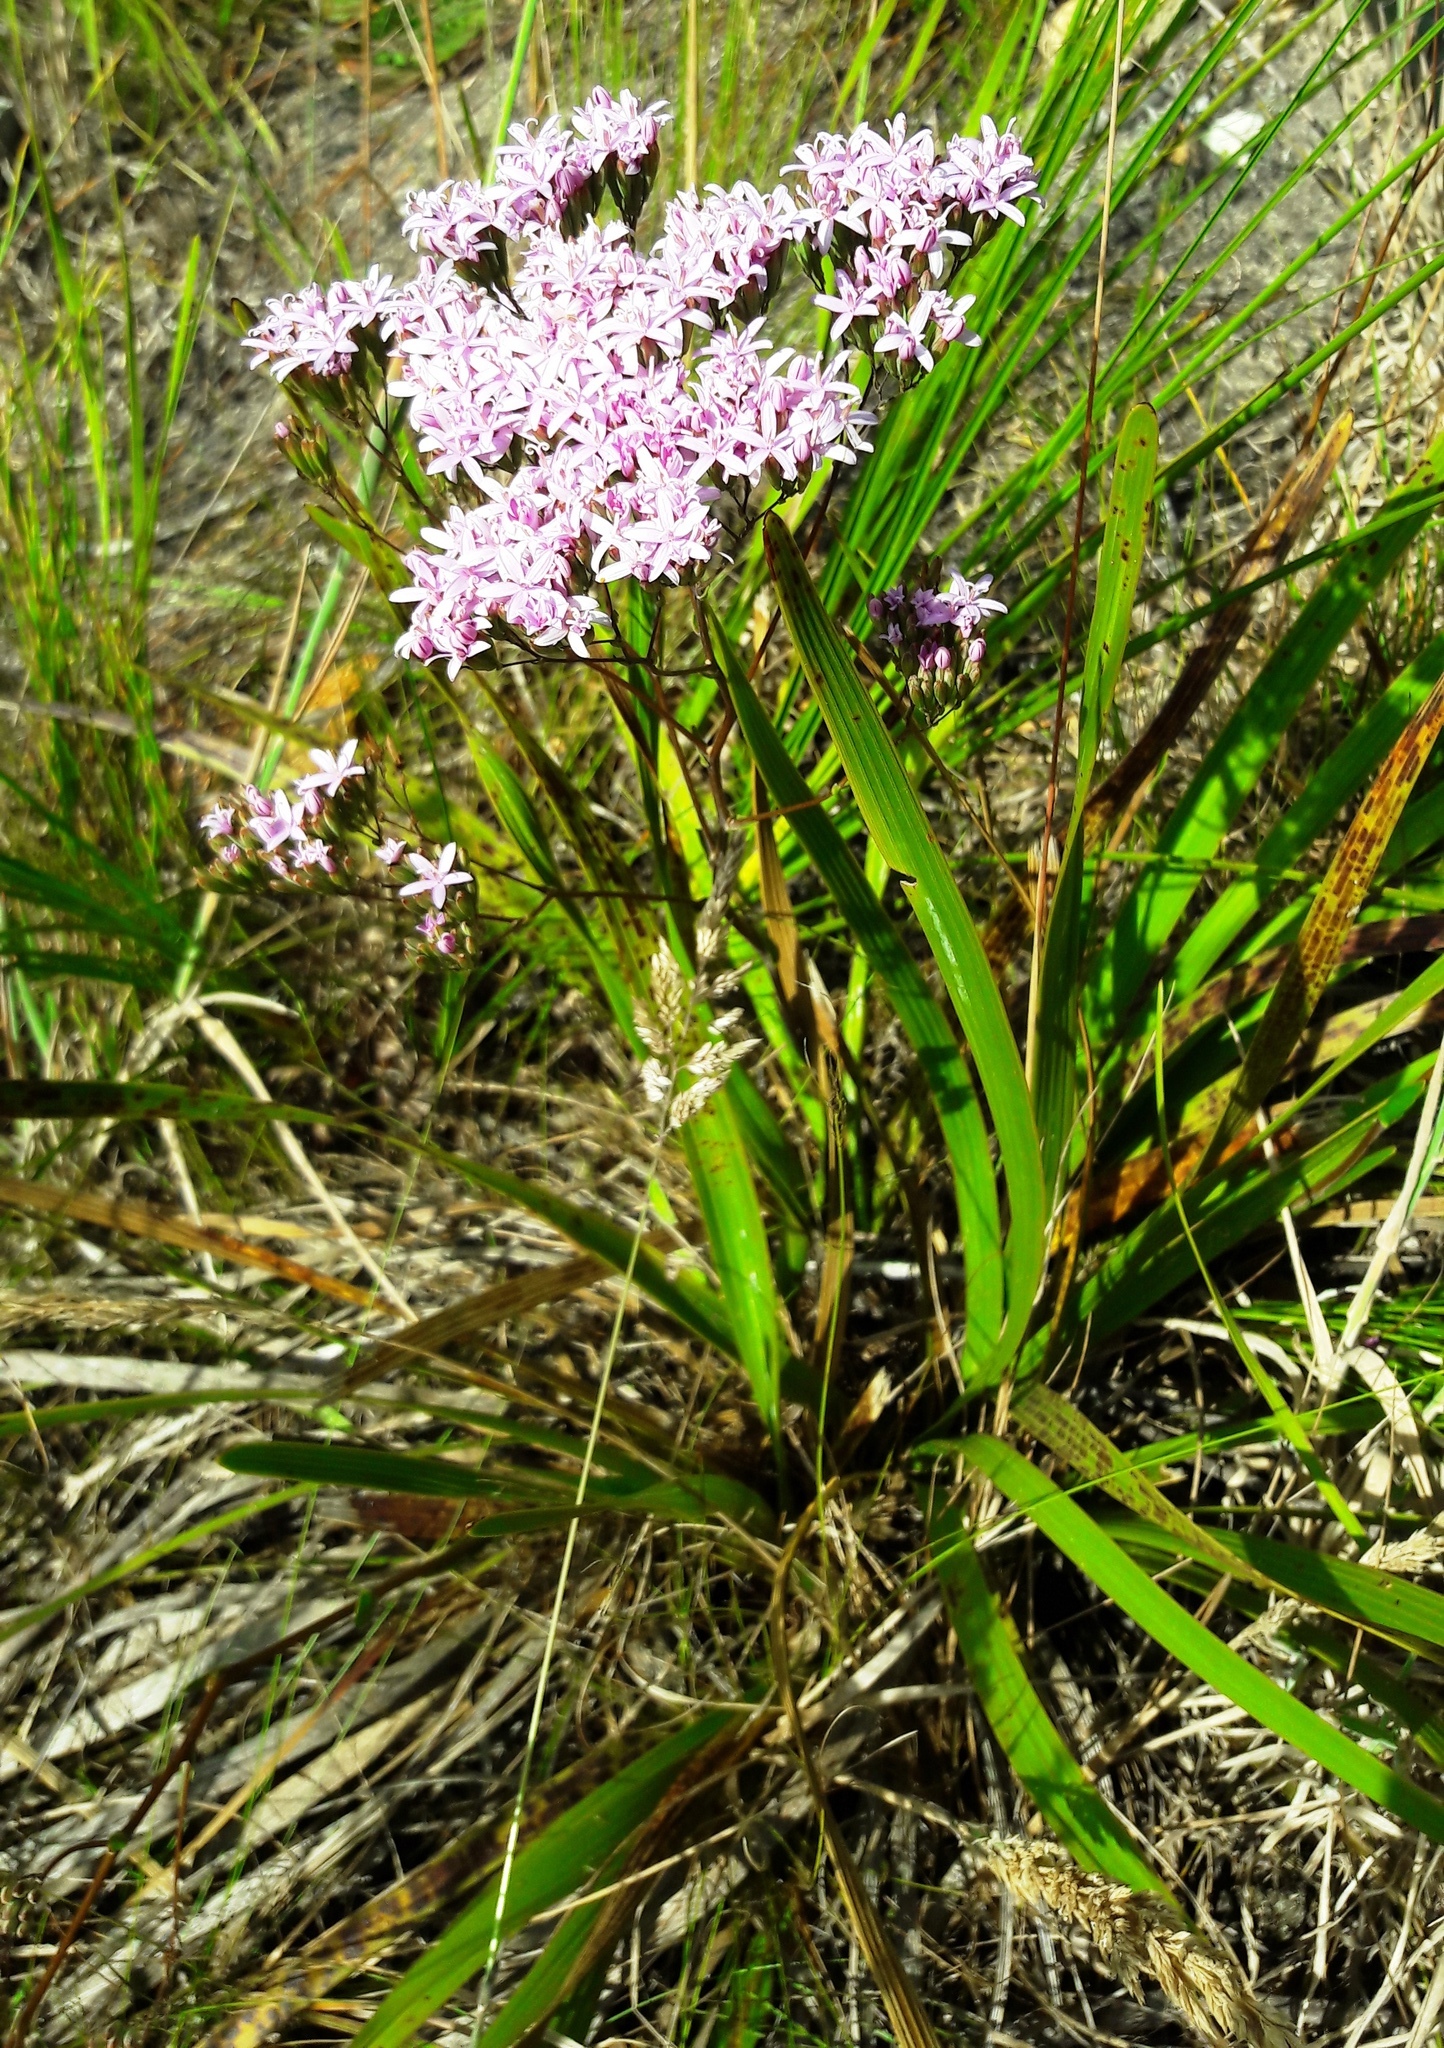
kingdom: Plantae
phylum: Tracheophyta
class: Magnoliopsida
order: Asterales
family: Asteraceae
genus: Corymbium
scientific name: Corymbium glabrum
